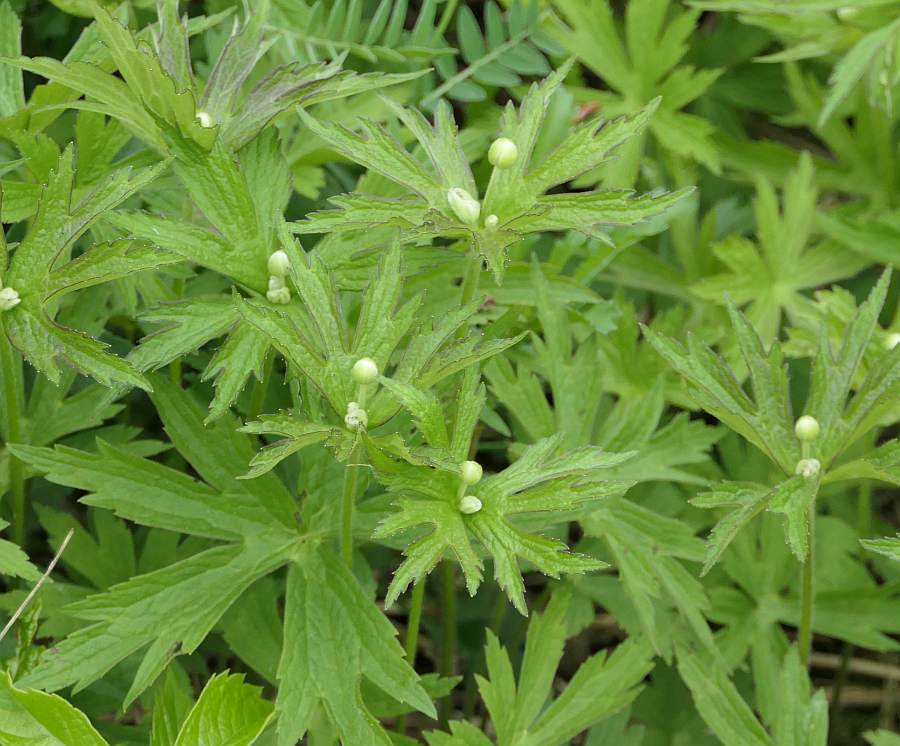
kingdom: Plantae
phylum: Tracheophyta
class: Magnoliopsida
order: Ranunculales
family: Ranunculaceae
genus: Anemonastrum
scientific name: Anemonastrum canadense
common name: Canada anemone
